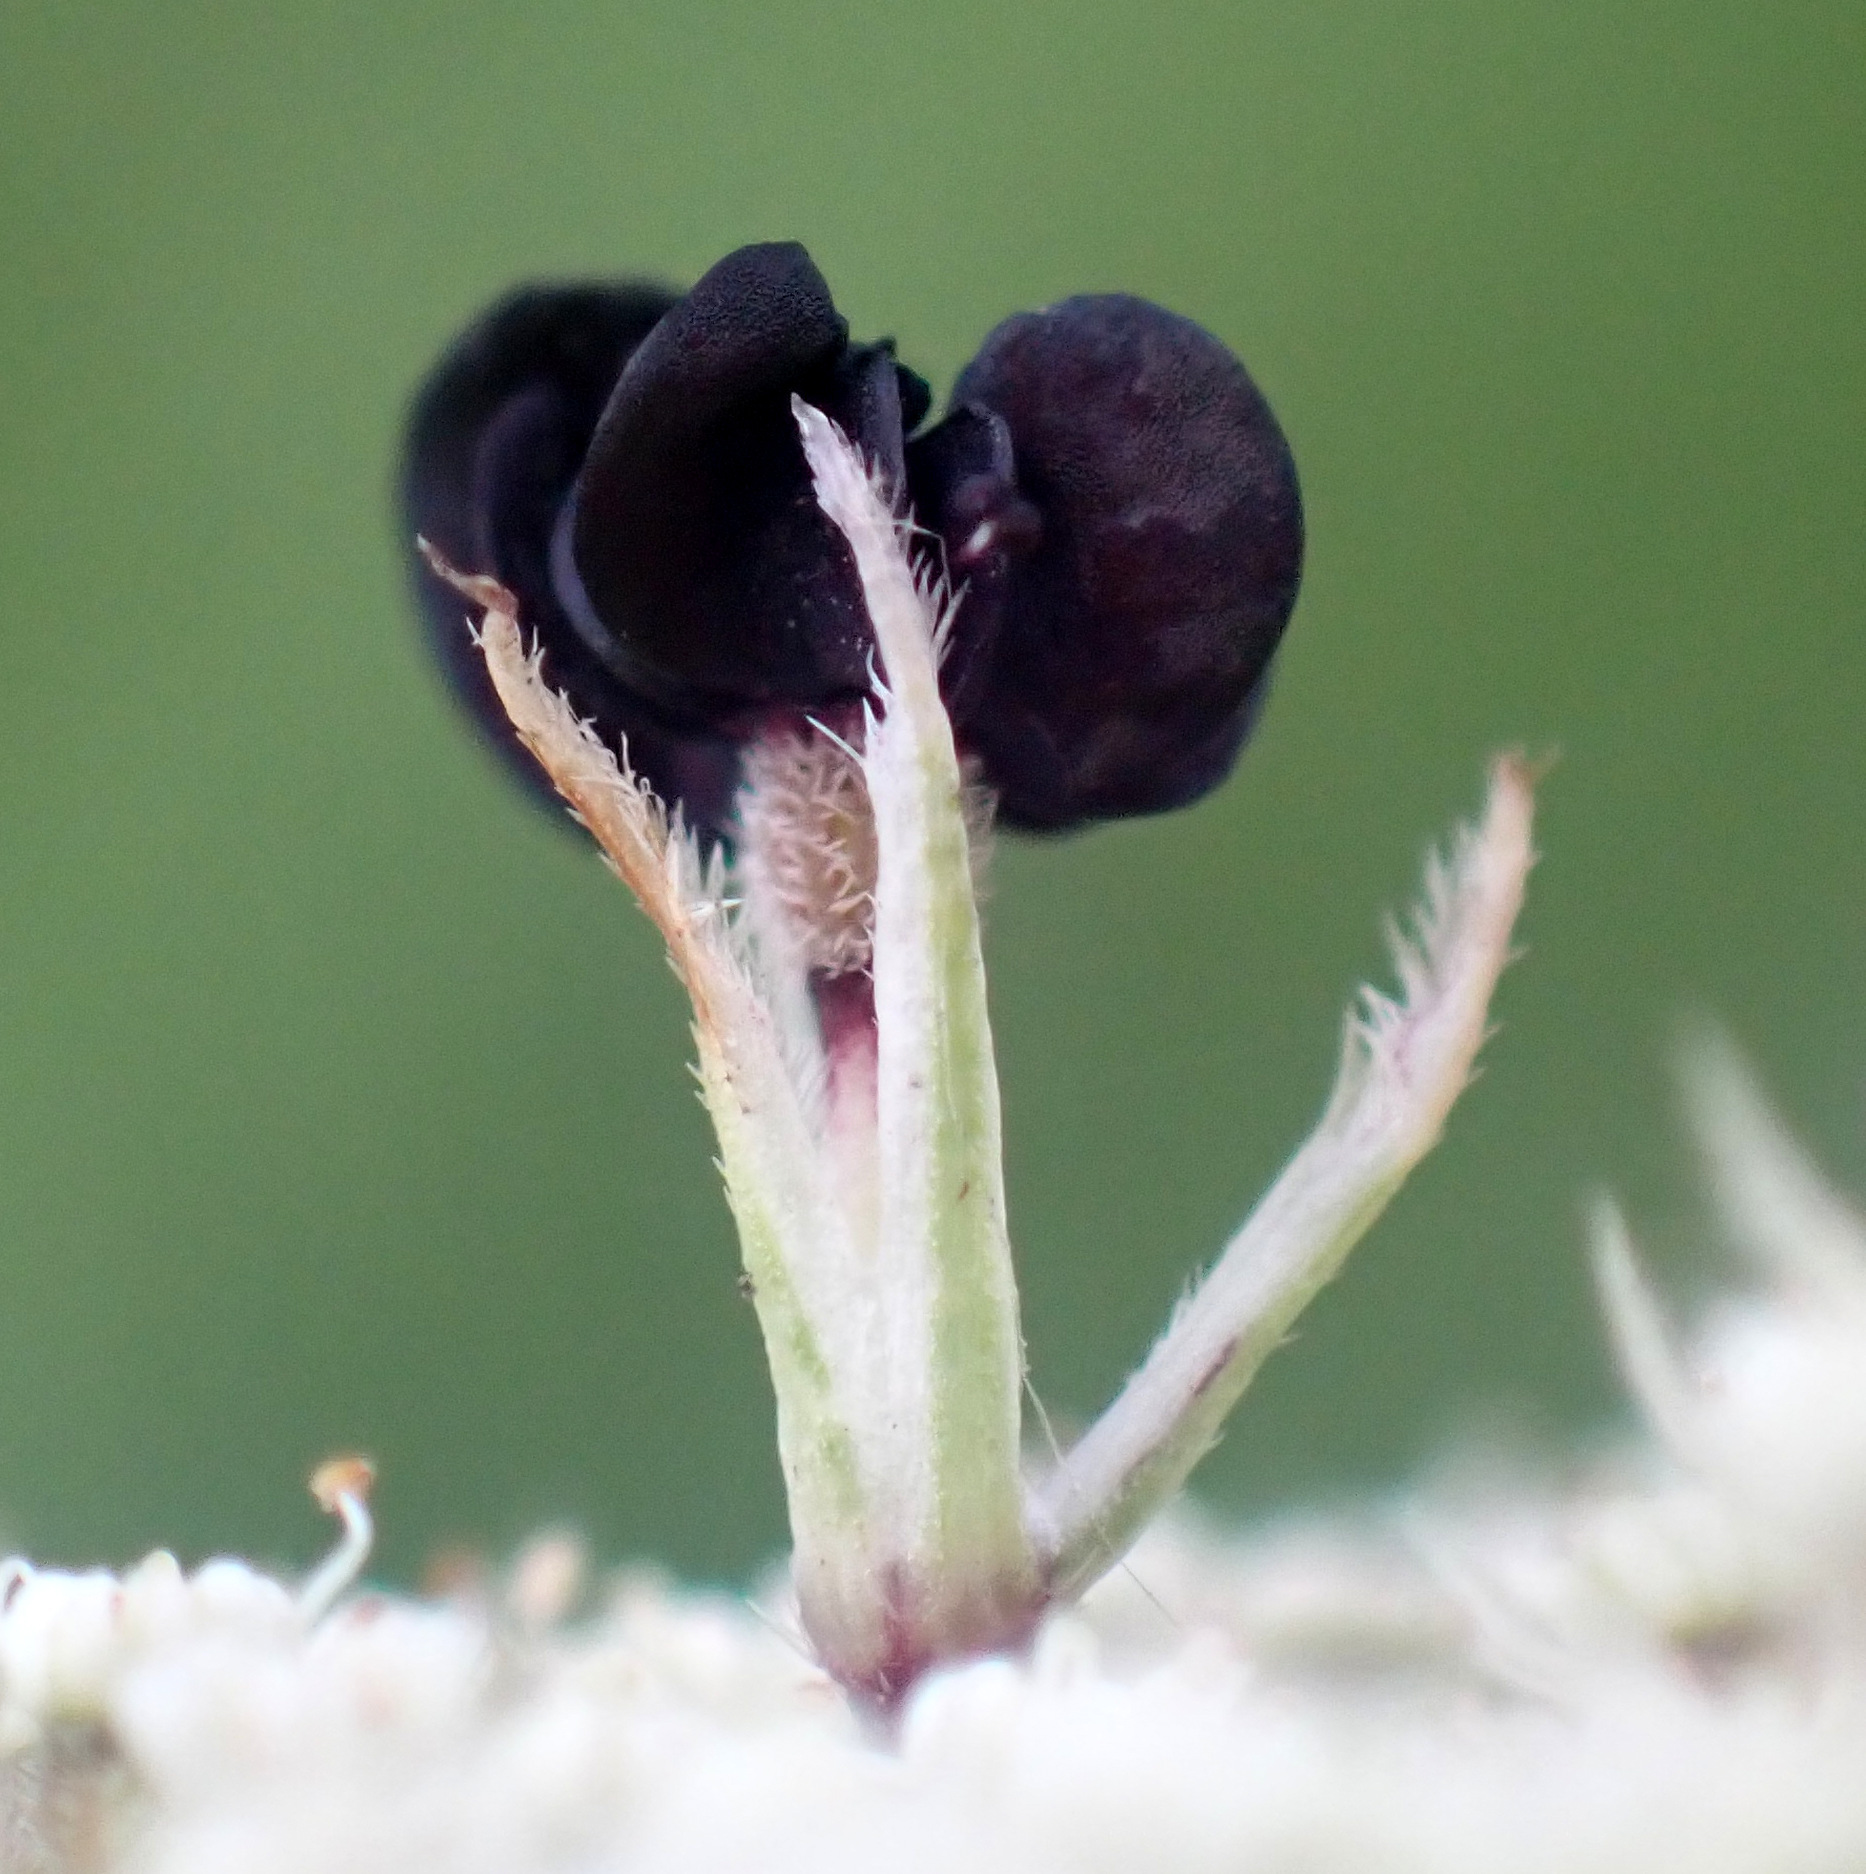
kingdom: Plantae
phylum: Tracheophyta
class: Magnoliopsida
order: Apiales
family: Apiaceae
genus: Daucus
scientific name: Daucus carota
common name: Wild carrot
